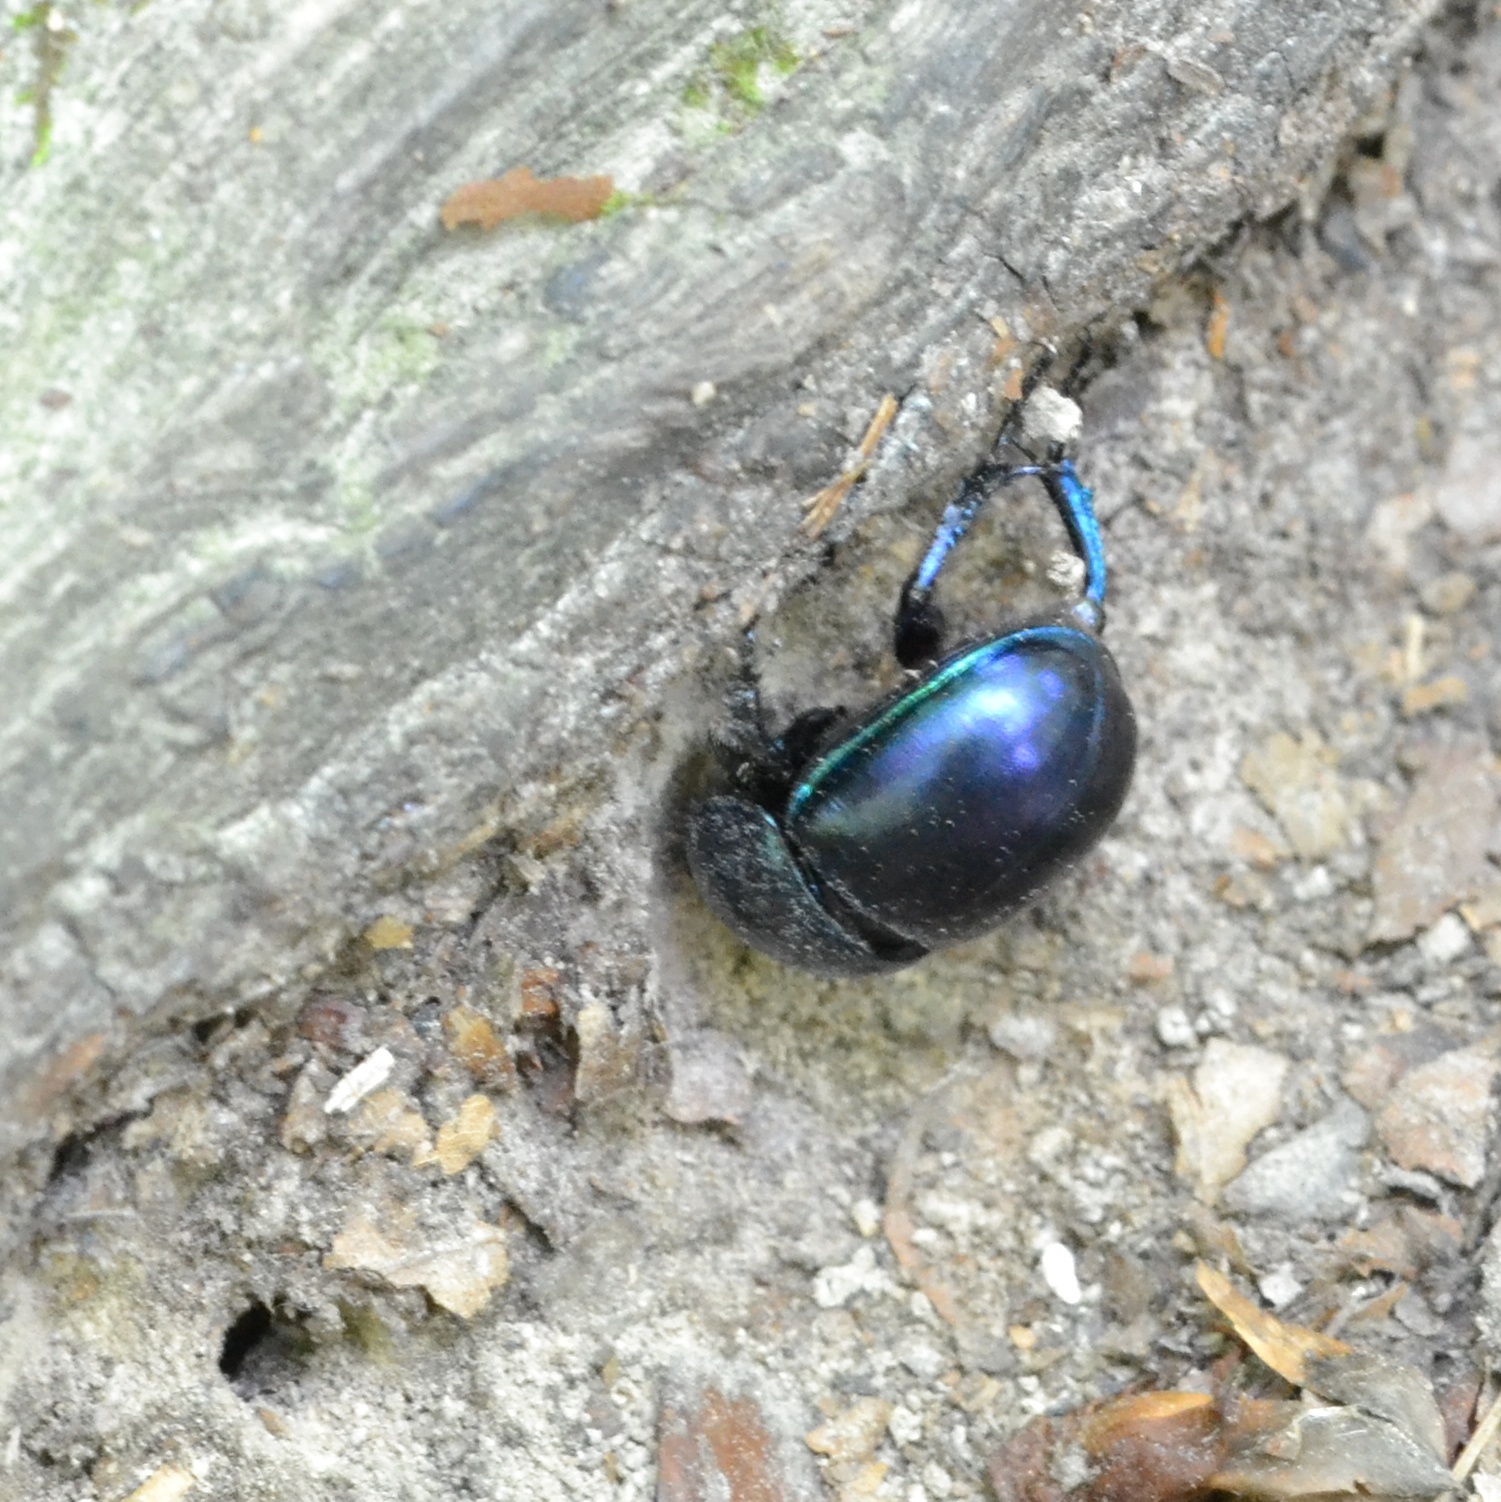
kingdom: Animalia
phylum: Arthropoda
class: Insecta
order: Coleoptera
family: Geotrupidae
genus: Trypocopris
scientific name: Trypocopris vernalis
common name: Spring dumbledor
